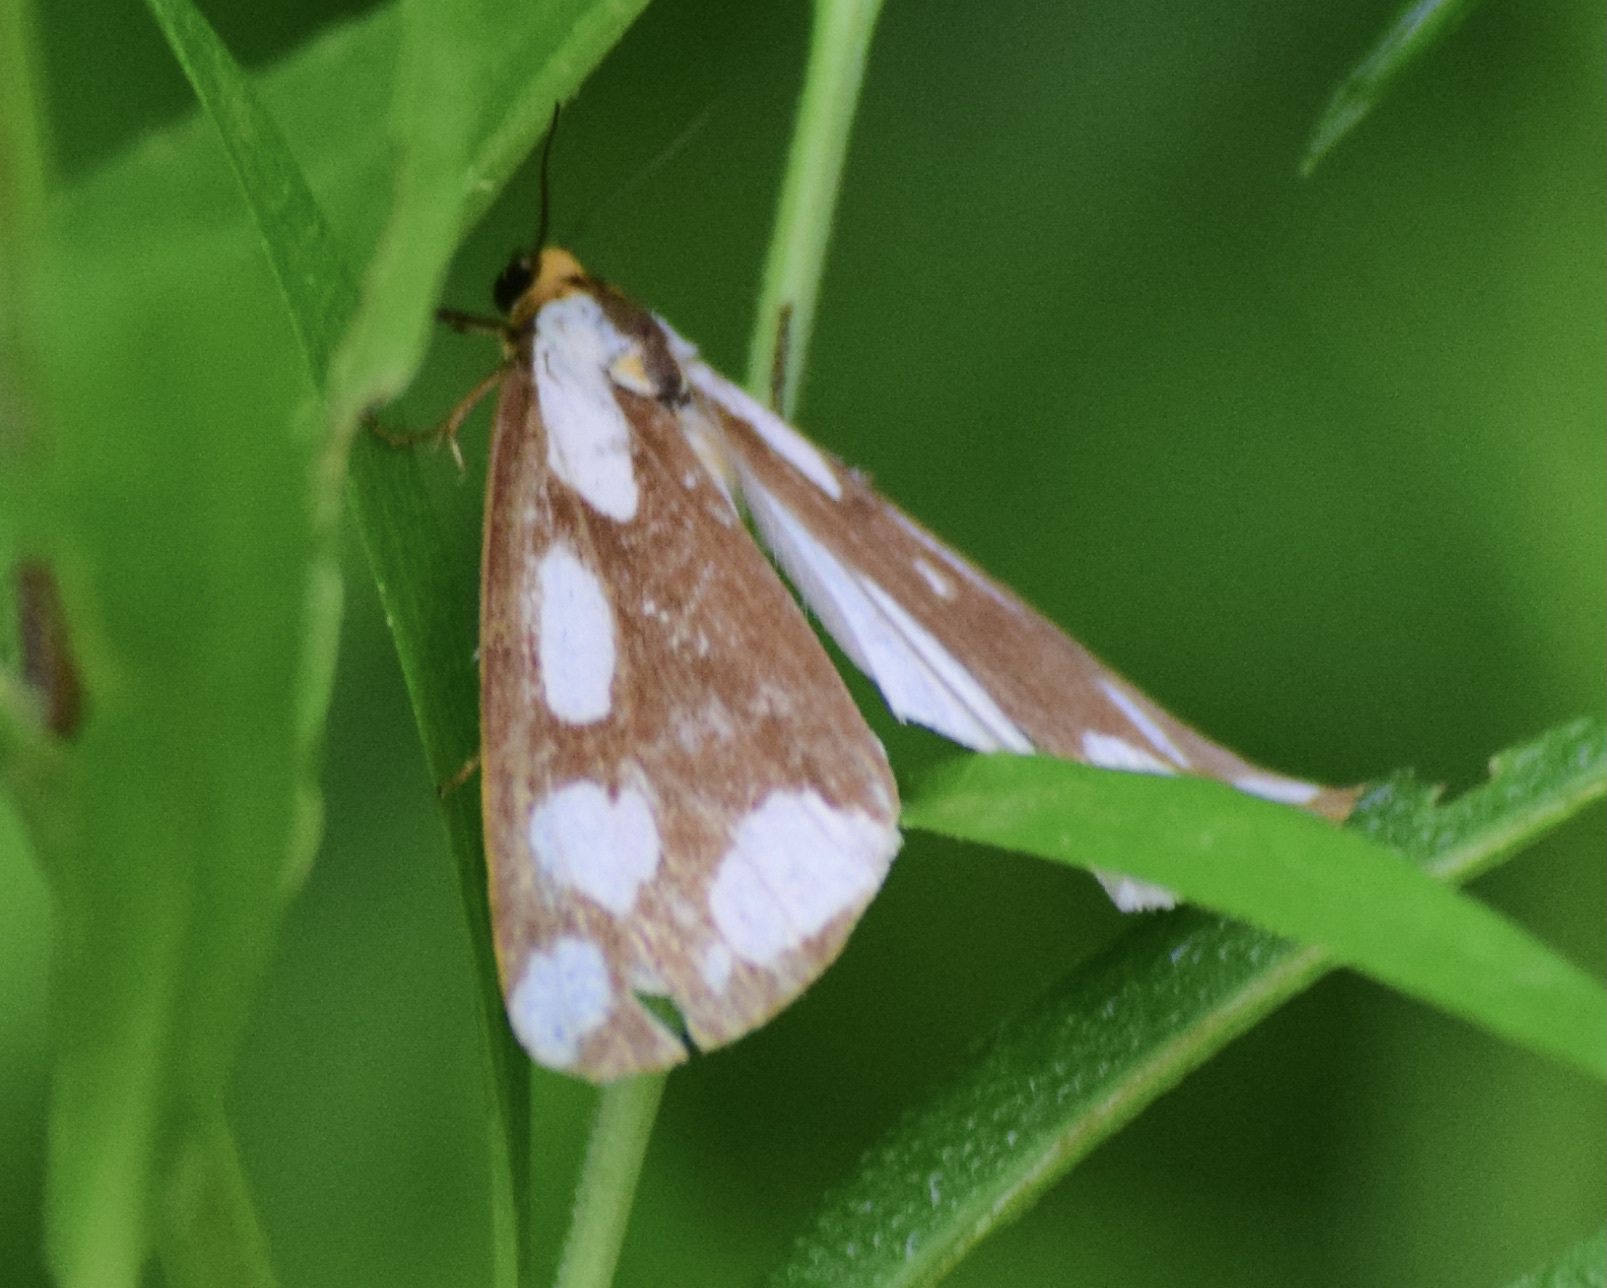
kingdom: Animalia
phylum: Arthropoda
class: Insecta
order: Lepidoptera
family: Erebidae
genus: Haploa
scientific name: Haploa lecontei
